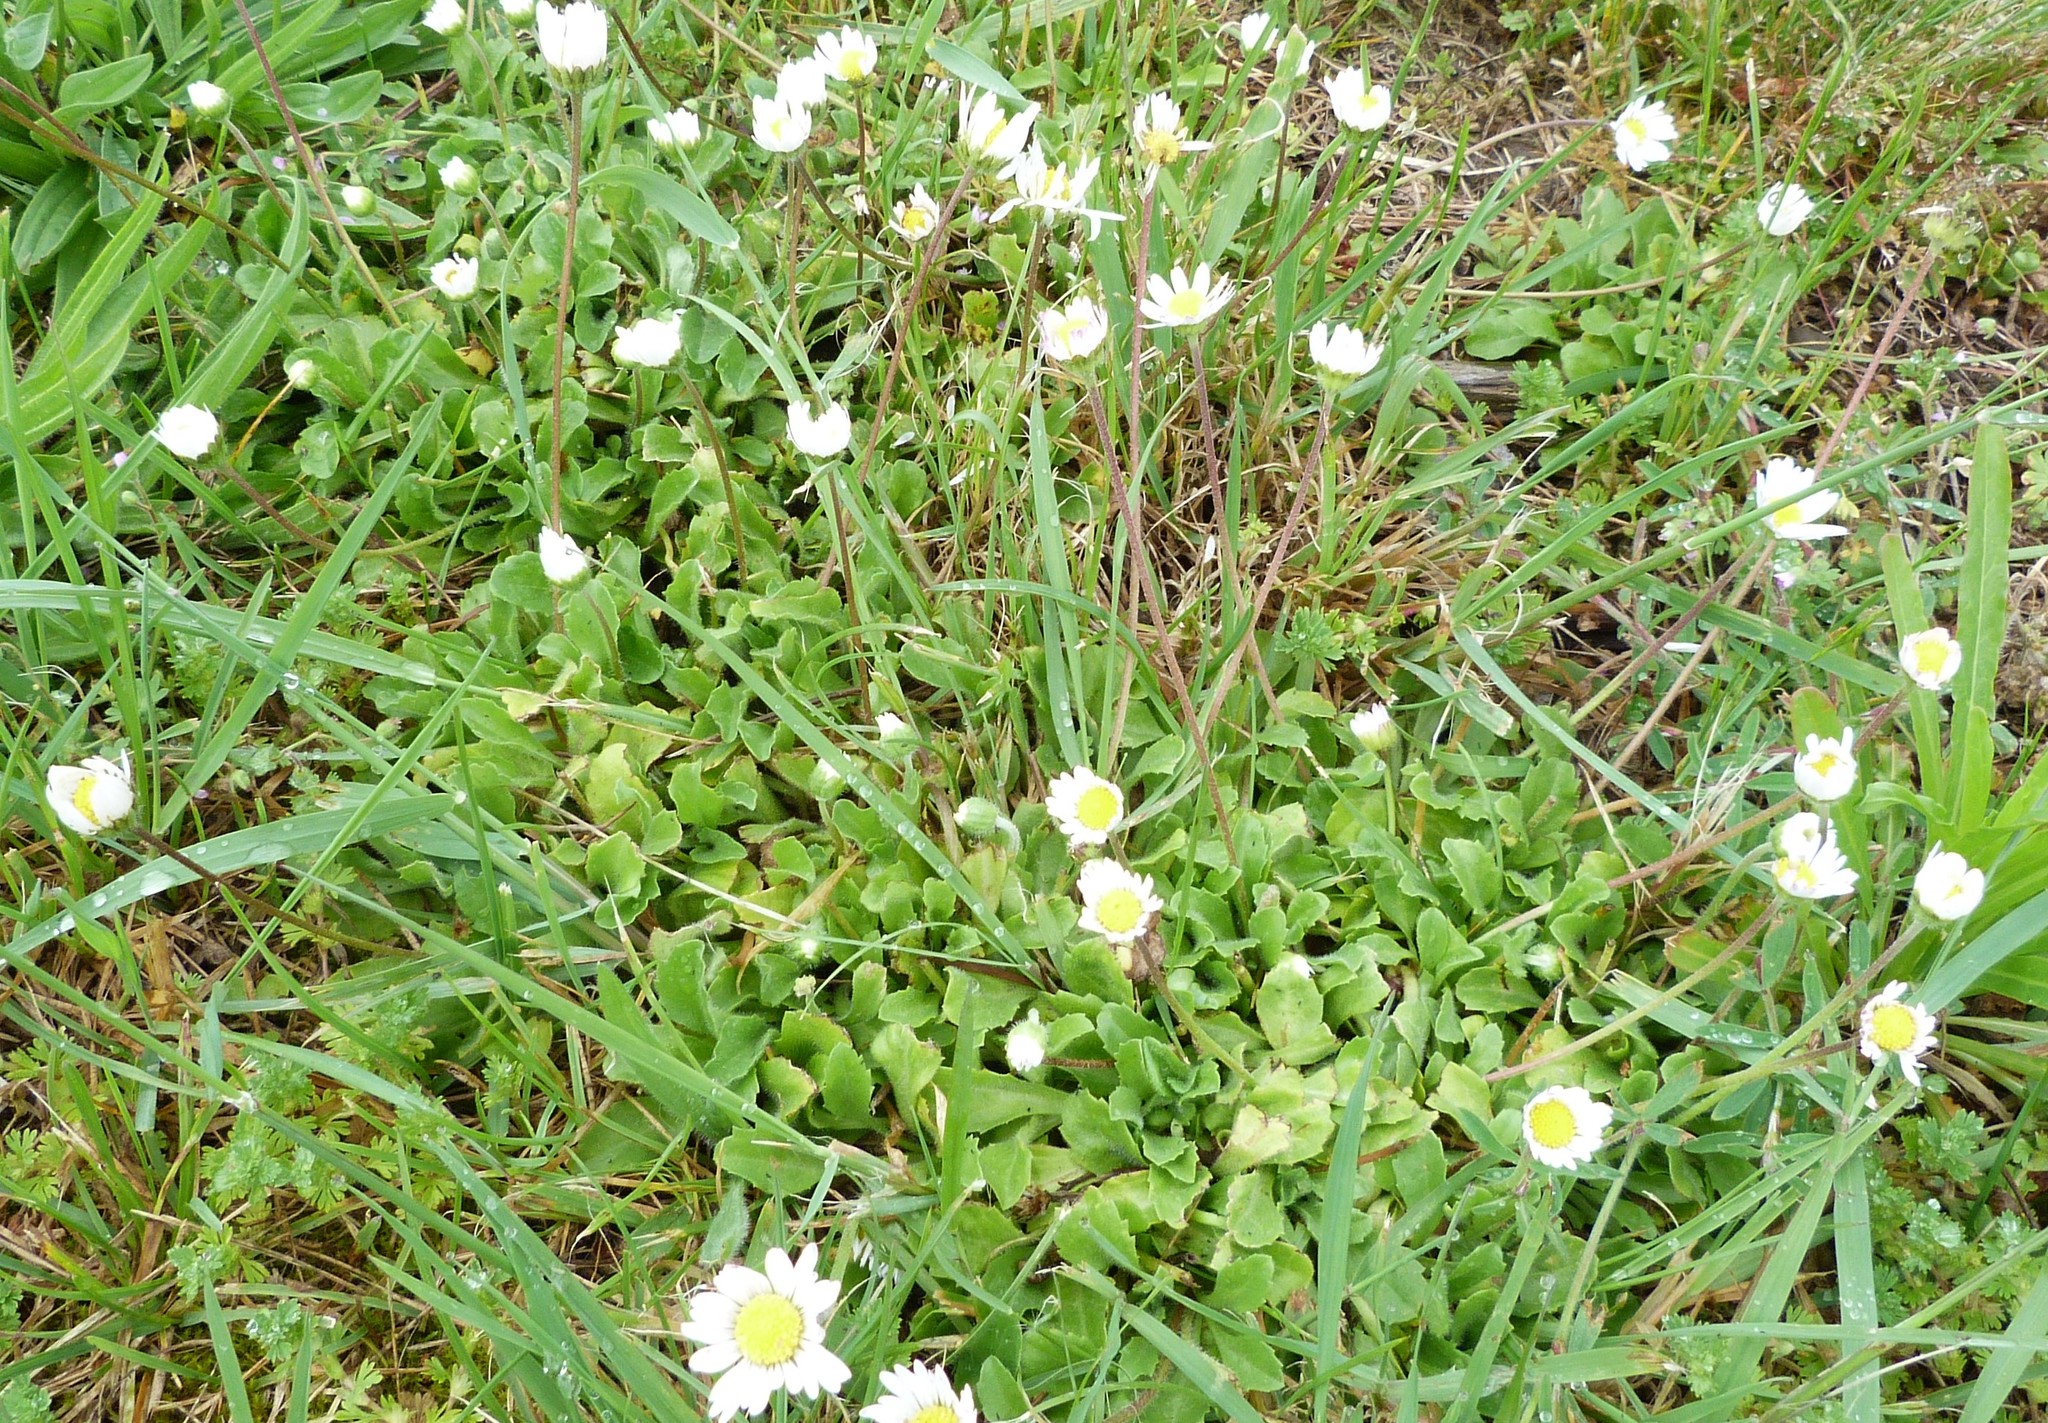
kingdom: Plantae
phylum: Tracheophyta
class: Magnoliopsida
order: Asterales
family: Asteraceae
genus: Bellis
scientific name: Bellis perennis
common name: Lawndaisy
